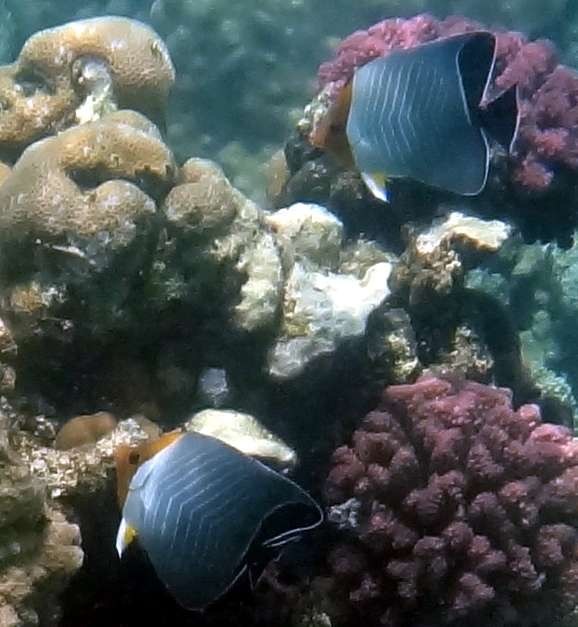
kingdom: Animalia
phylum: Chordata
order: Perciformes
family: Chaetodontidae
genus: Chaetodon
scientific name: Chaetodon larvatus
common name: Hooded butterflyfish
